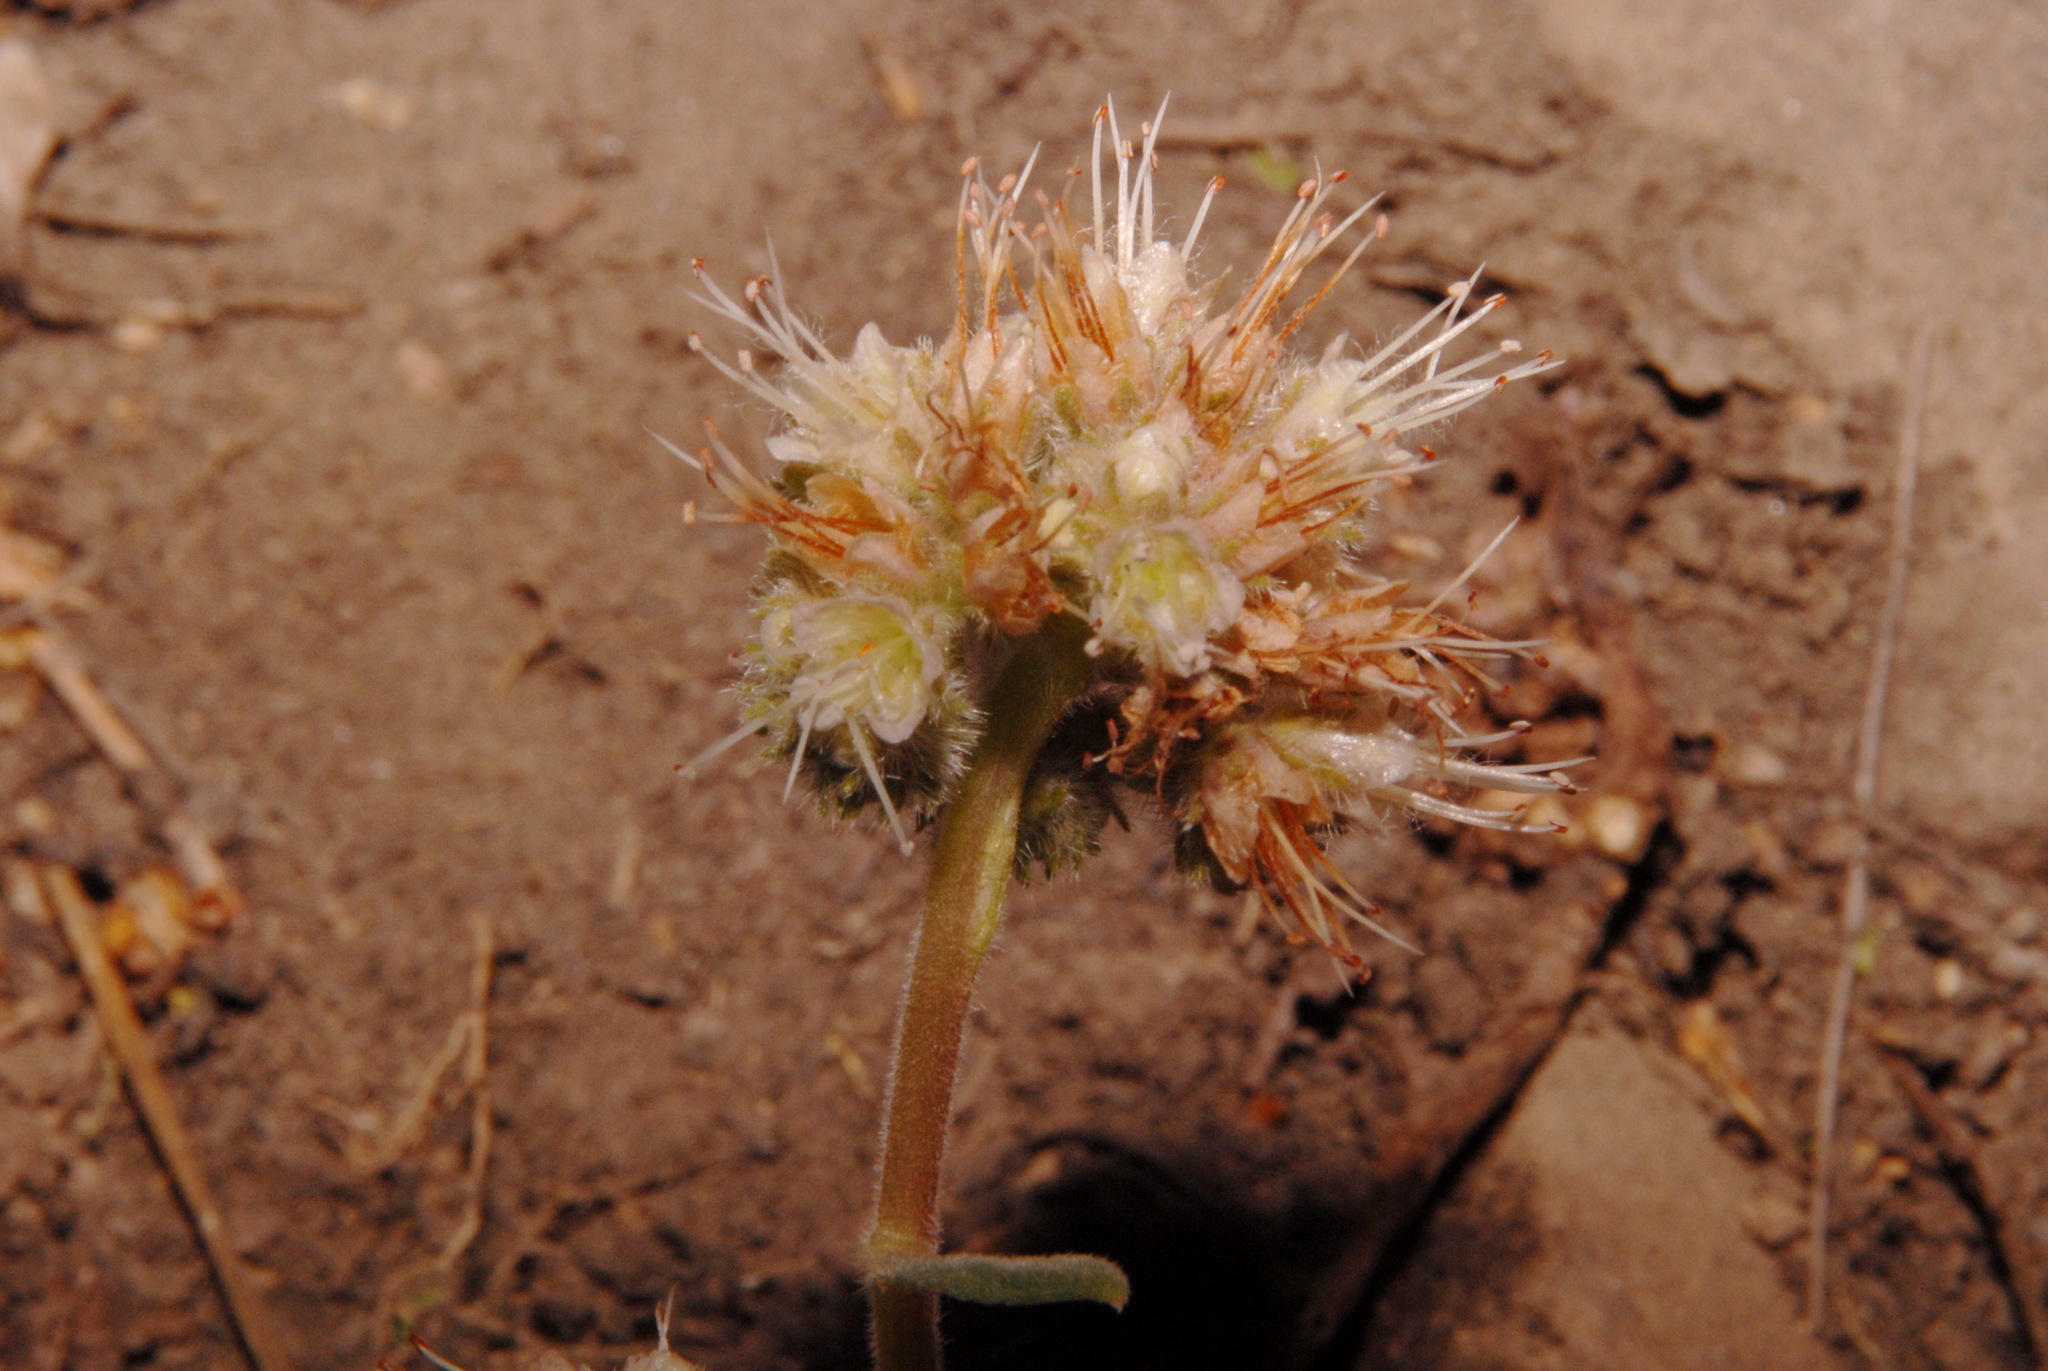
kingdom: Plantae
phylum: Tracheophyta
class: Magnoliopsida
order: Boraginales
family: Hydrophyllaceae
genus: Phacelia
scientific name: Phacelia hastata
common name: Silver-leaved phacelia
